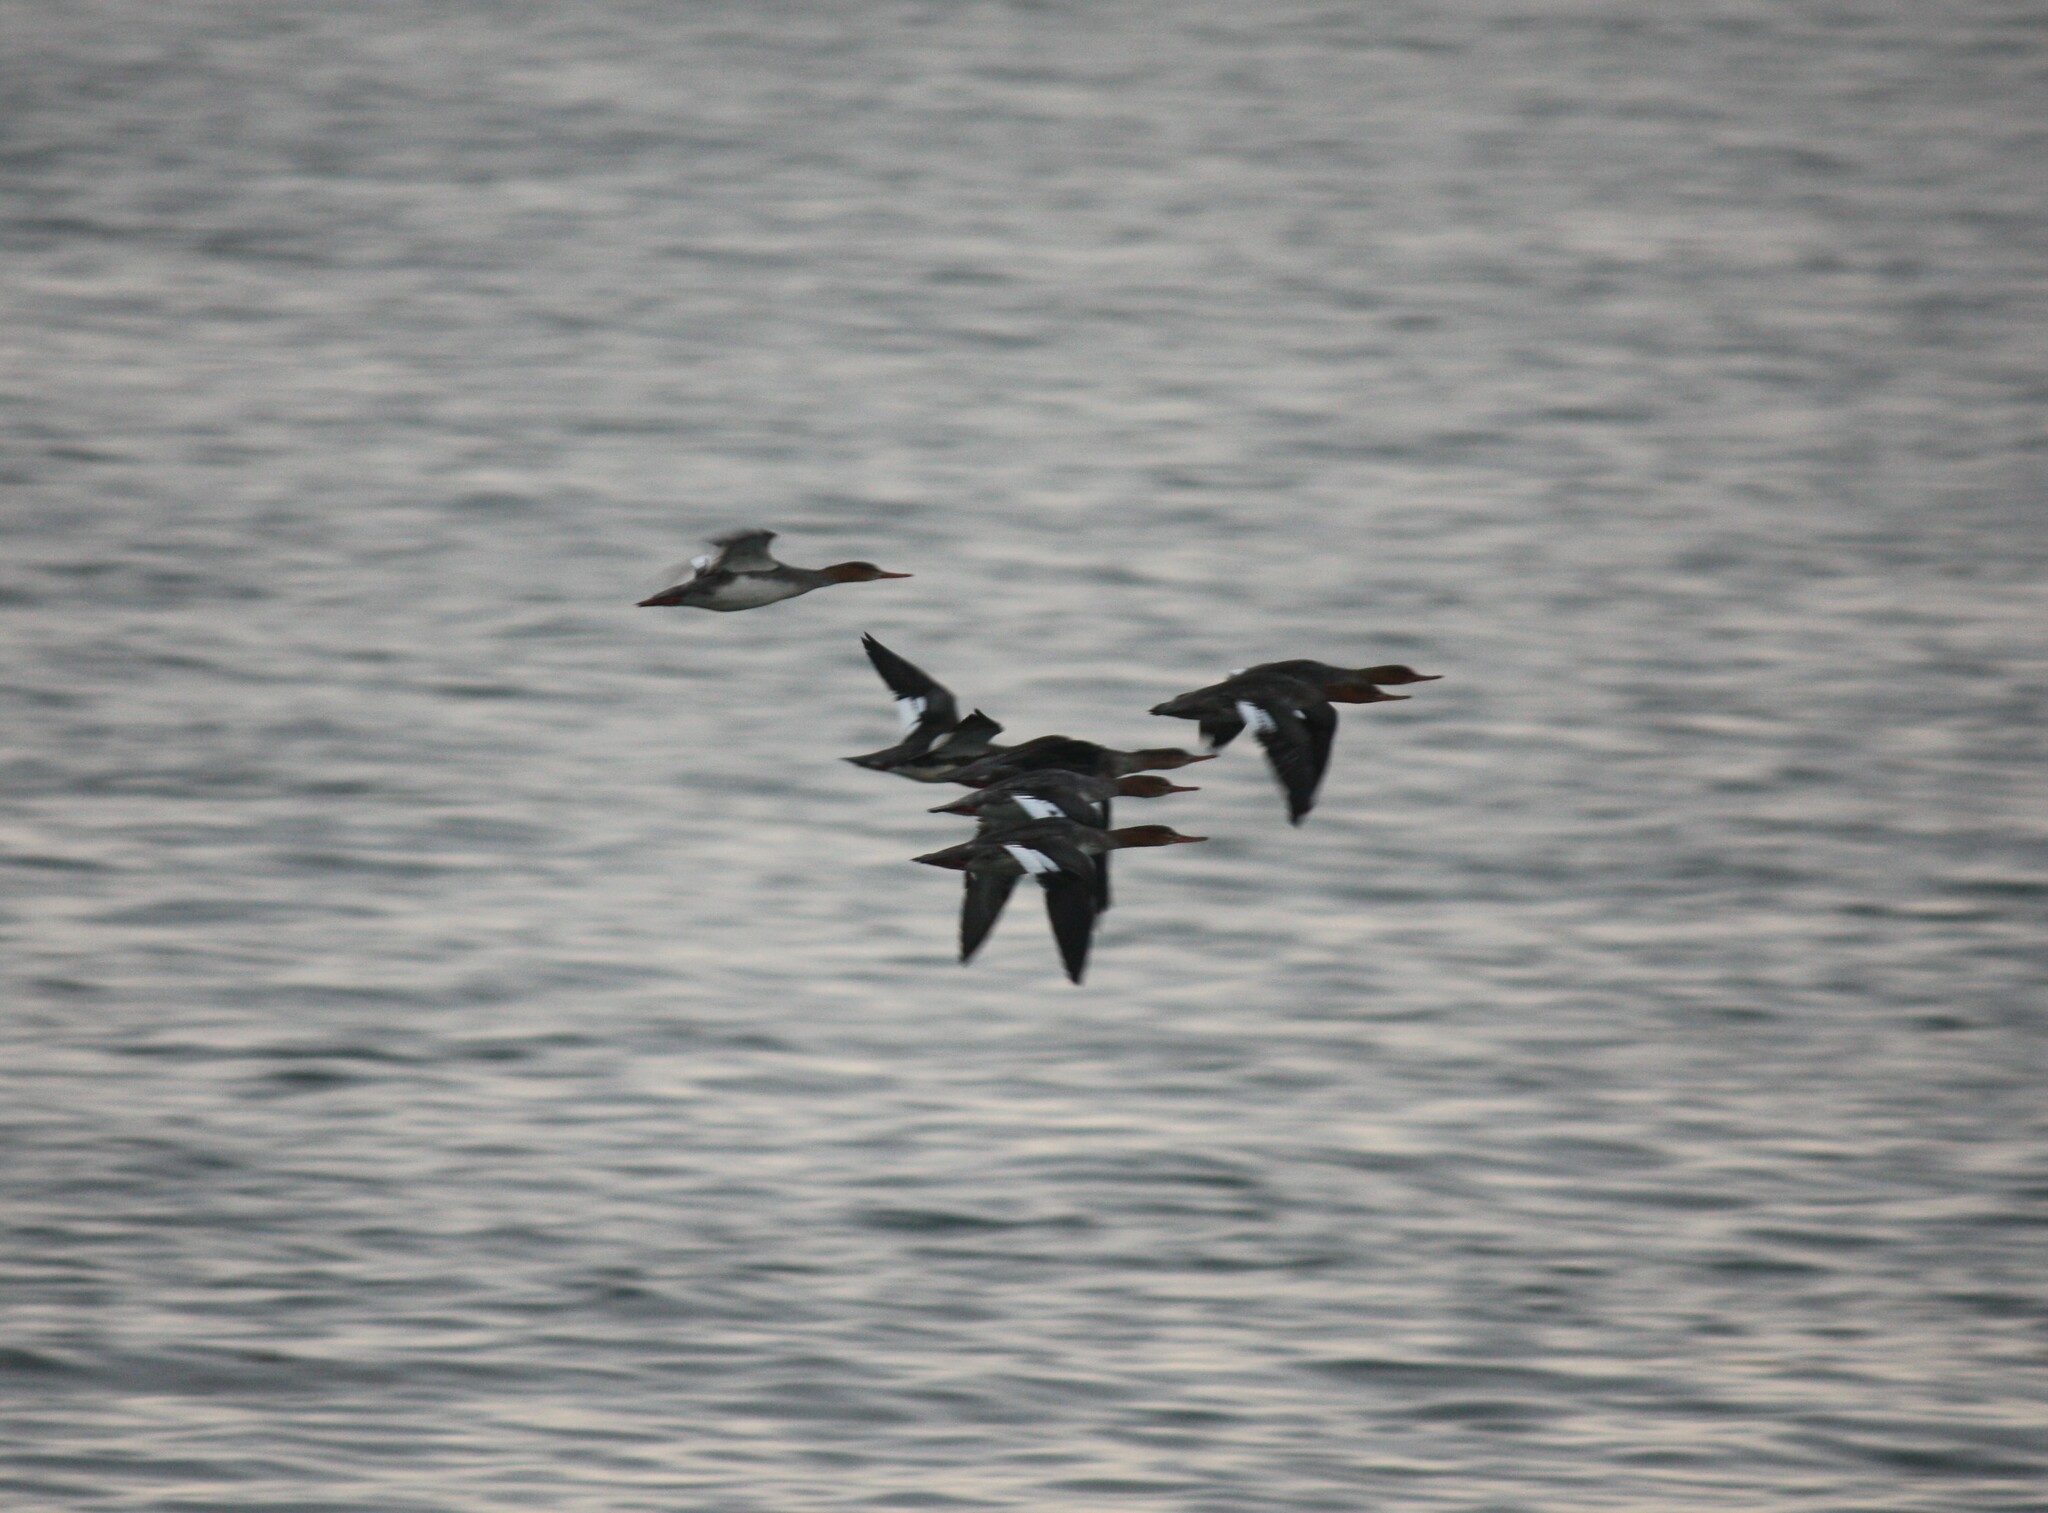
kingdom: Animalia
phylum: Chordata
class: Aves
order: Anseriformes
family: Anatidae
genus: Mergus
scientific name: Mergus merganser
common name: Common merganser
